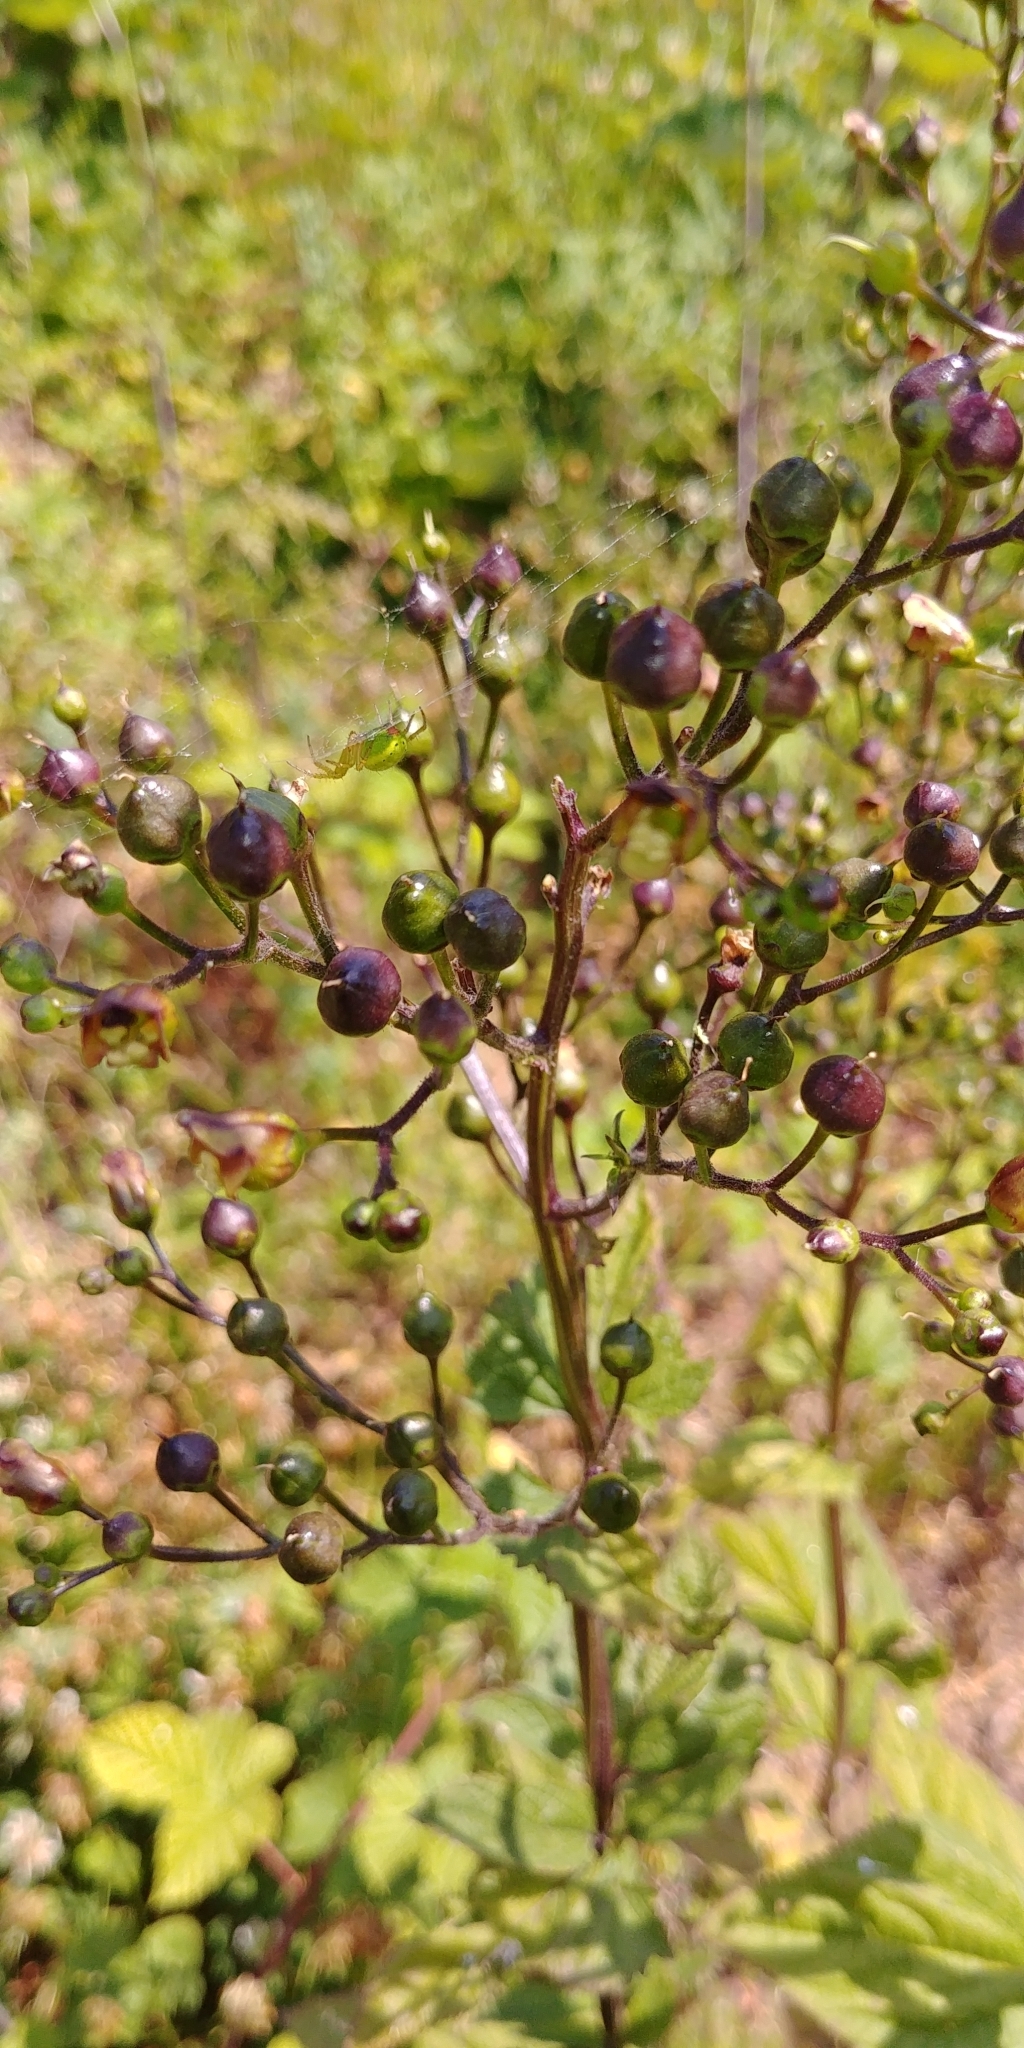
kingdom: Plantae
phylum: Tracheophyta
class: Magnoliopsida
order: Lamiales
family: Scrophulariaceae
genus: Scrophularia
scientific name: Scrophularia nodosa
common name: Common figwort
